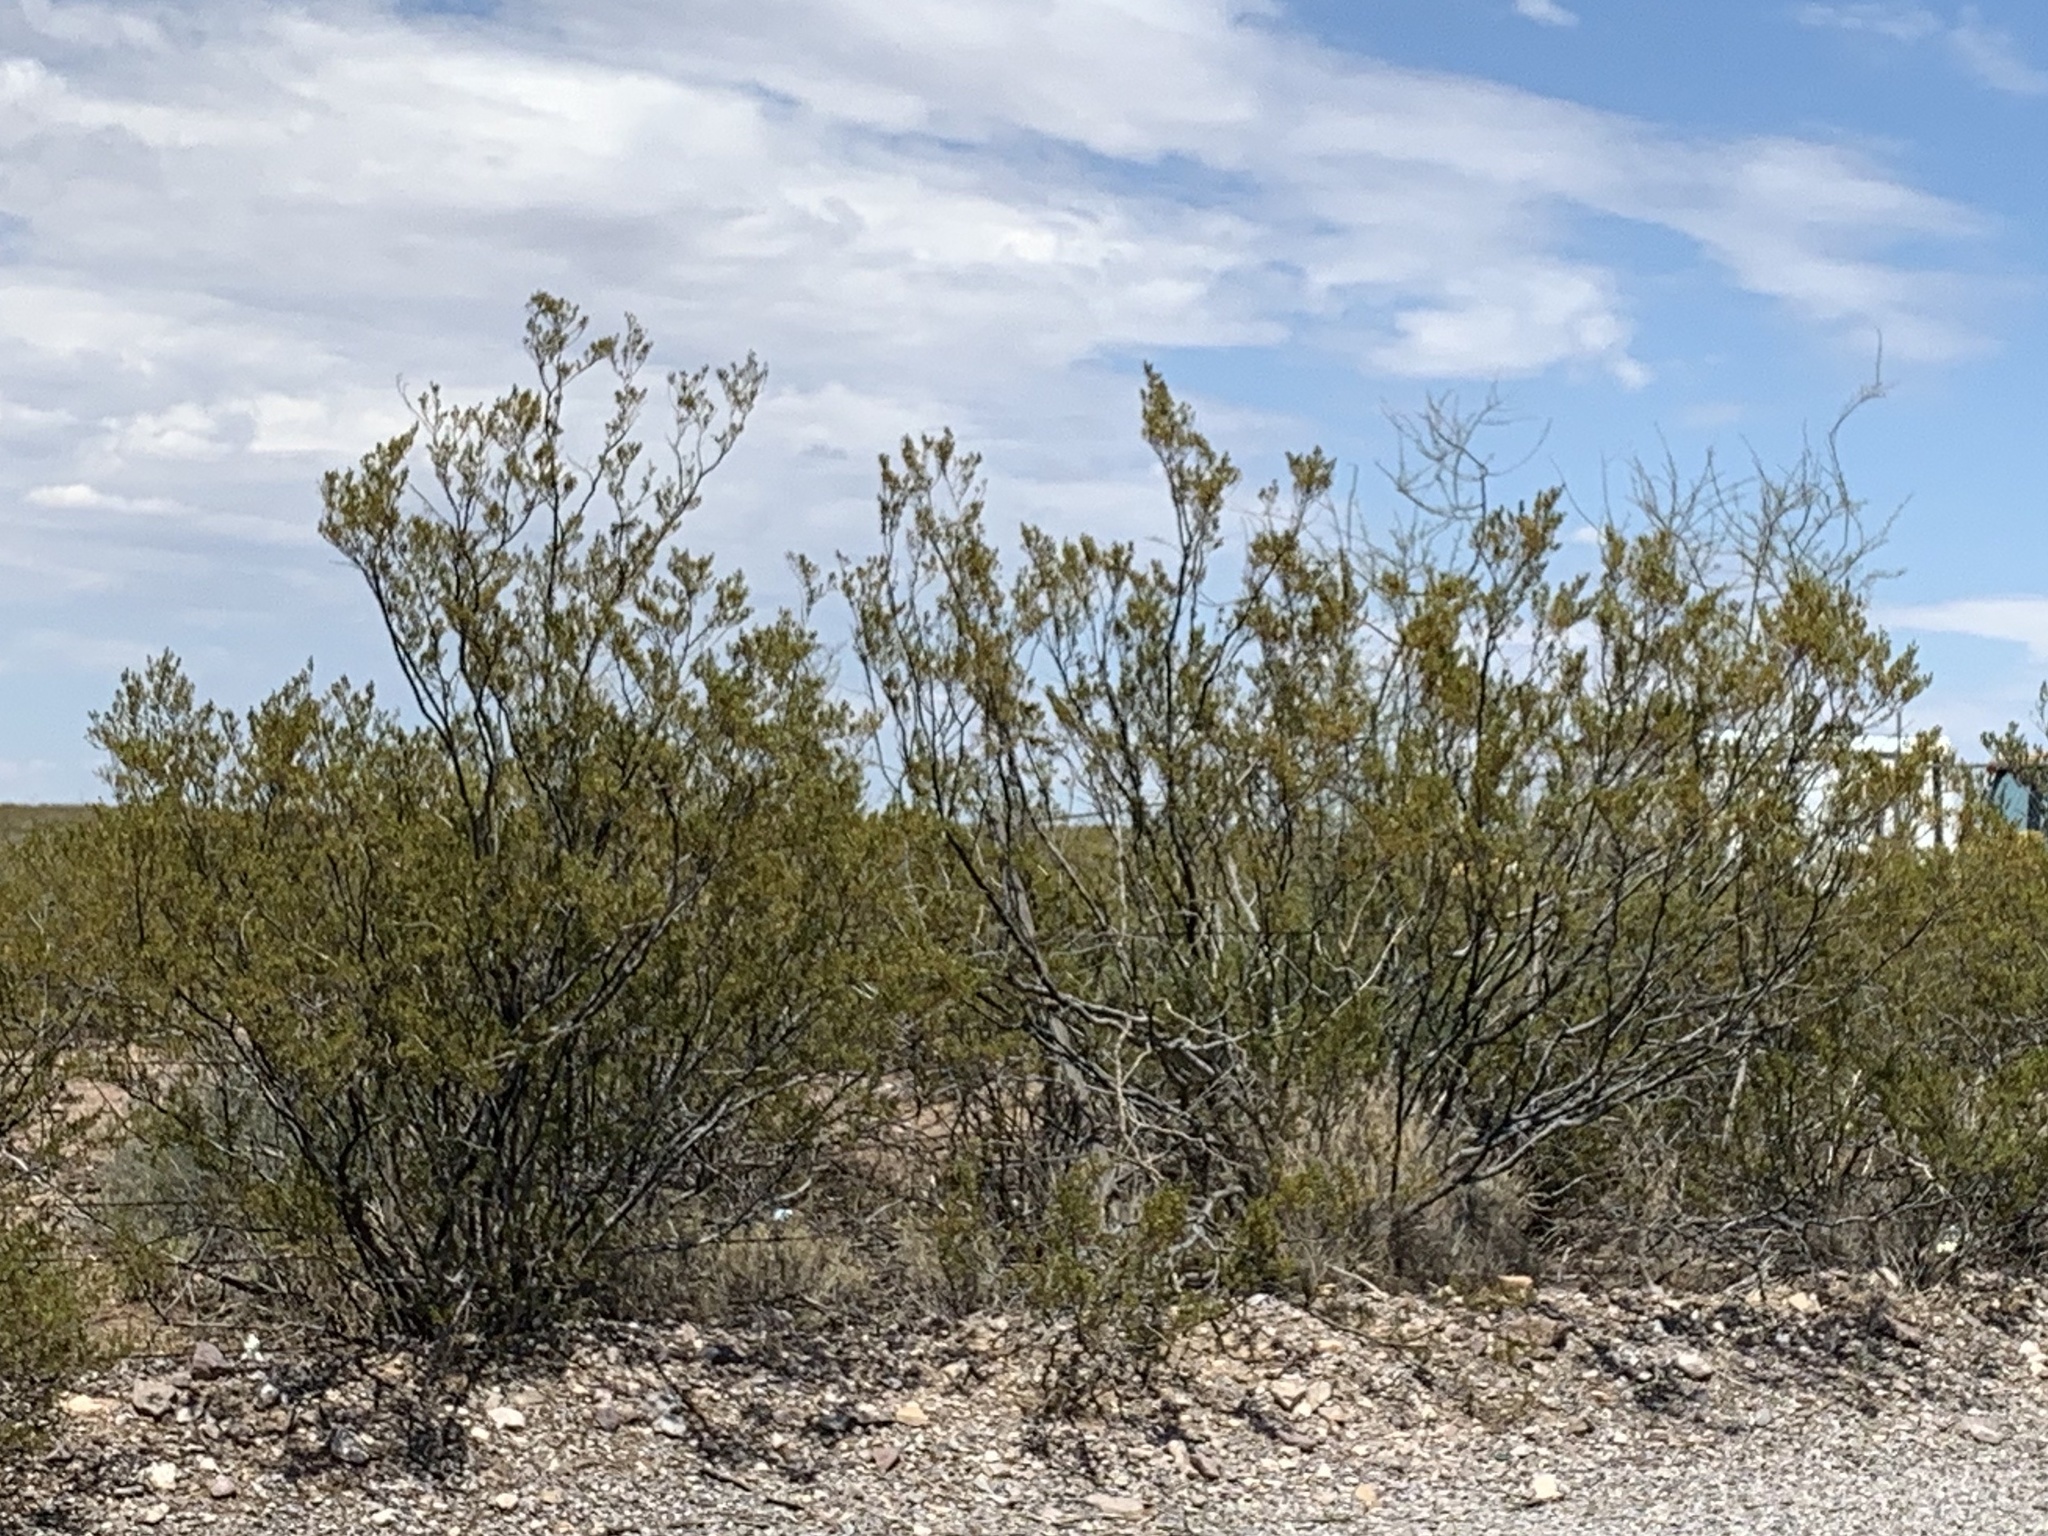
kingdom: Plantae
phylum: Tracheophyta
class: Magnoliopsida
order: Zygophyllales
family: Zygophyllaceae
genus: Larrea
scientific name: Larrea tridentata
